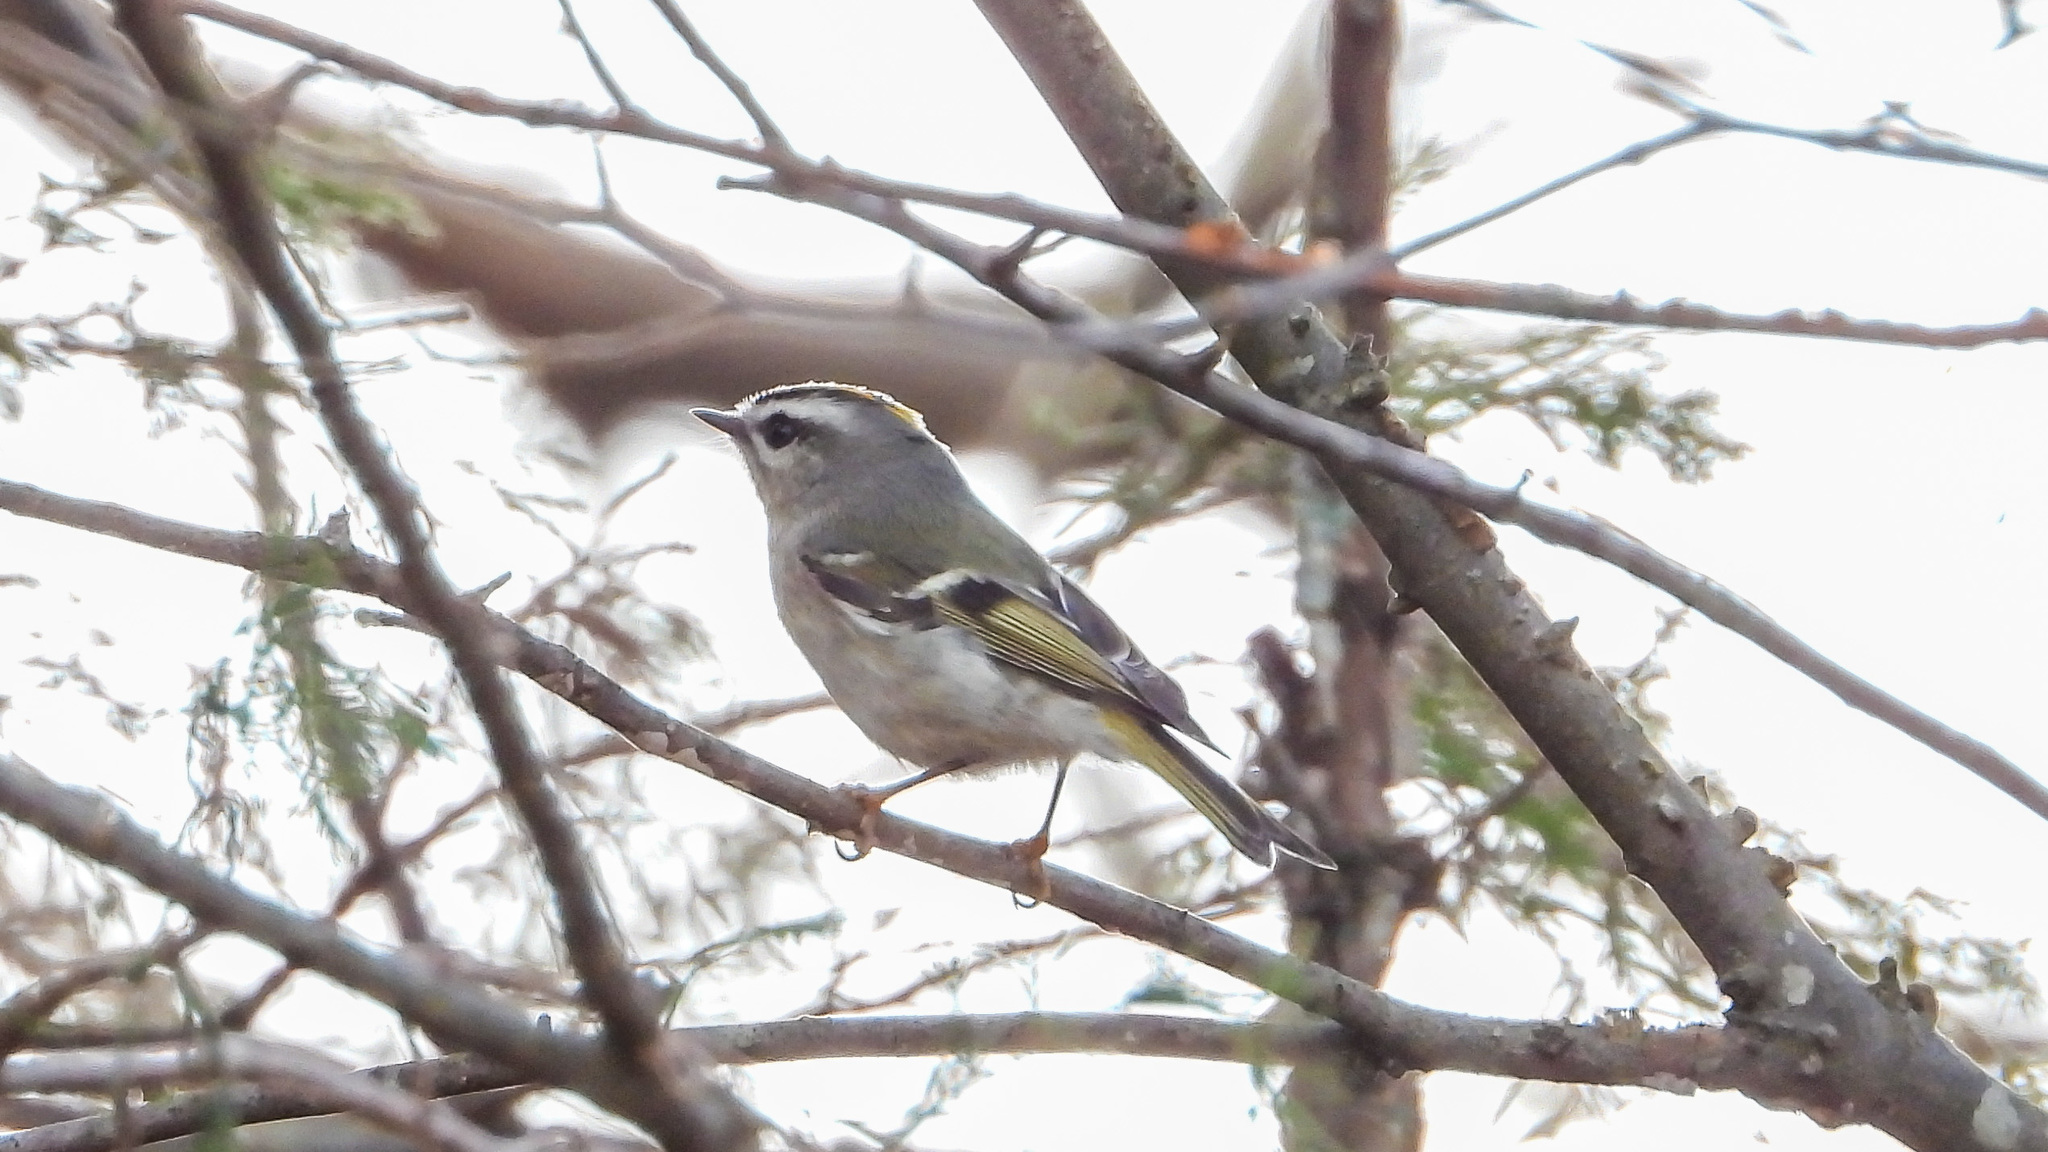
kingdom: Animalia
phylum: Chordata
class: Aves
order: Passeriformes
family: Regulidae
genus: Regulus
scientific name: Regulus satrapa
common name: Golden-crowned kinglet
